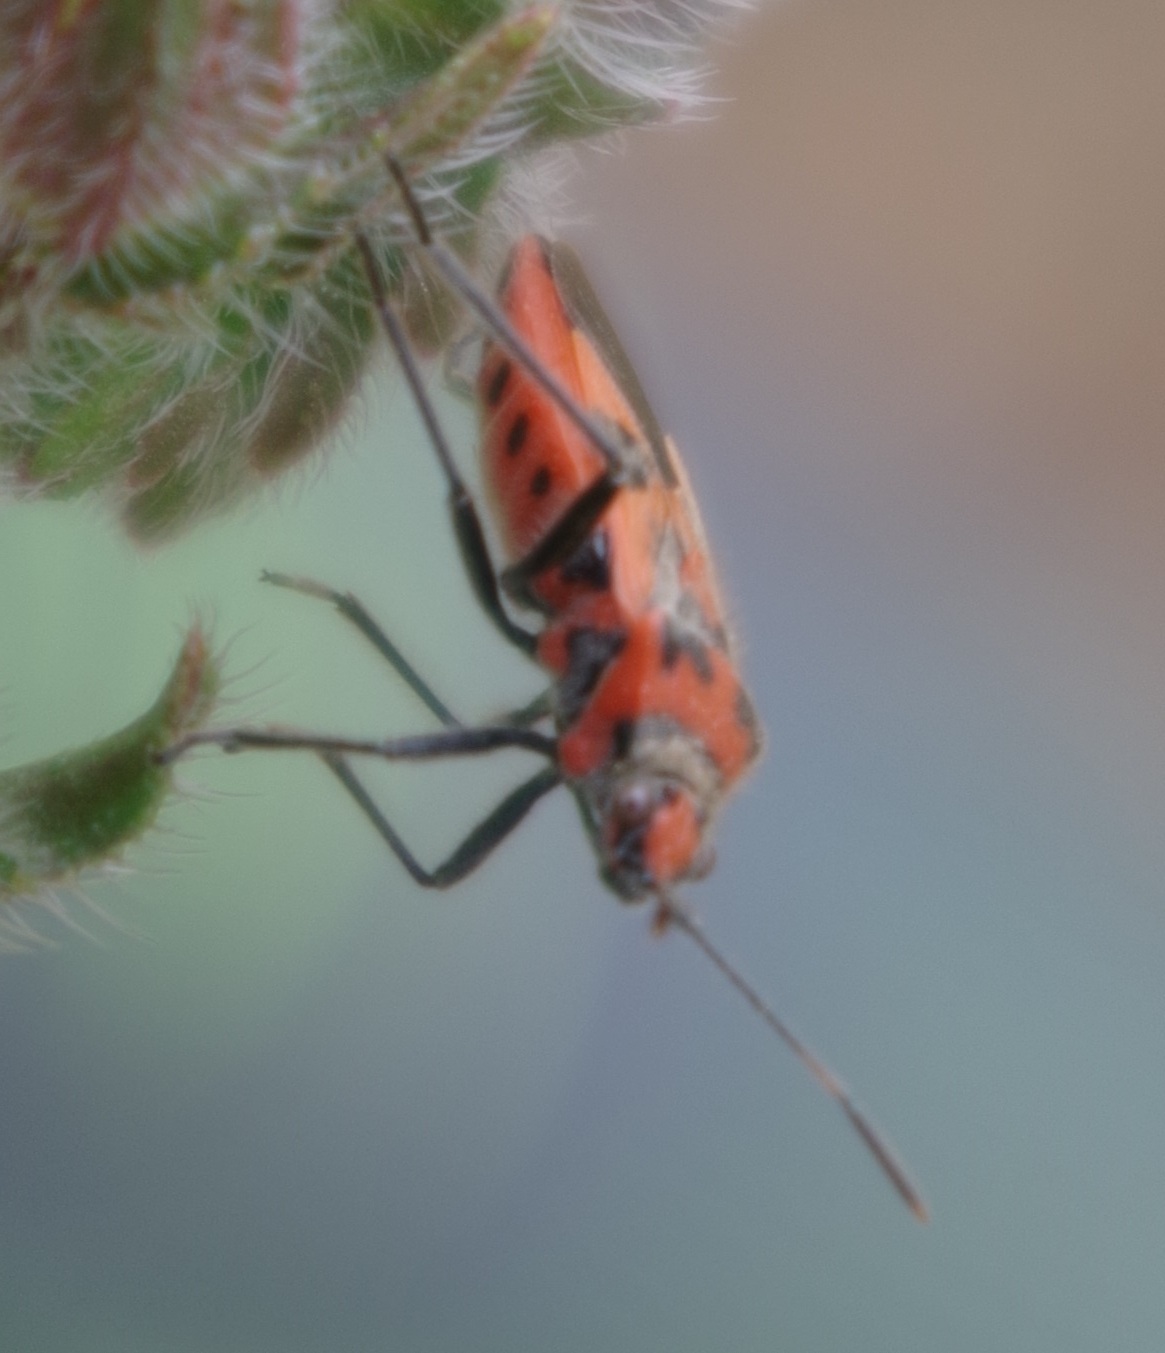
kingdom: Animalia
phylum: Arthropoda
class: Insecta
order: Hemiptera
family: Rhopalidae
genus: Corizus
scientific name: Corizus hyoscyami
